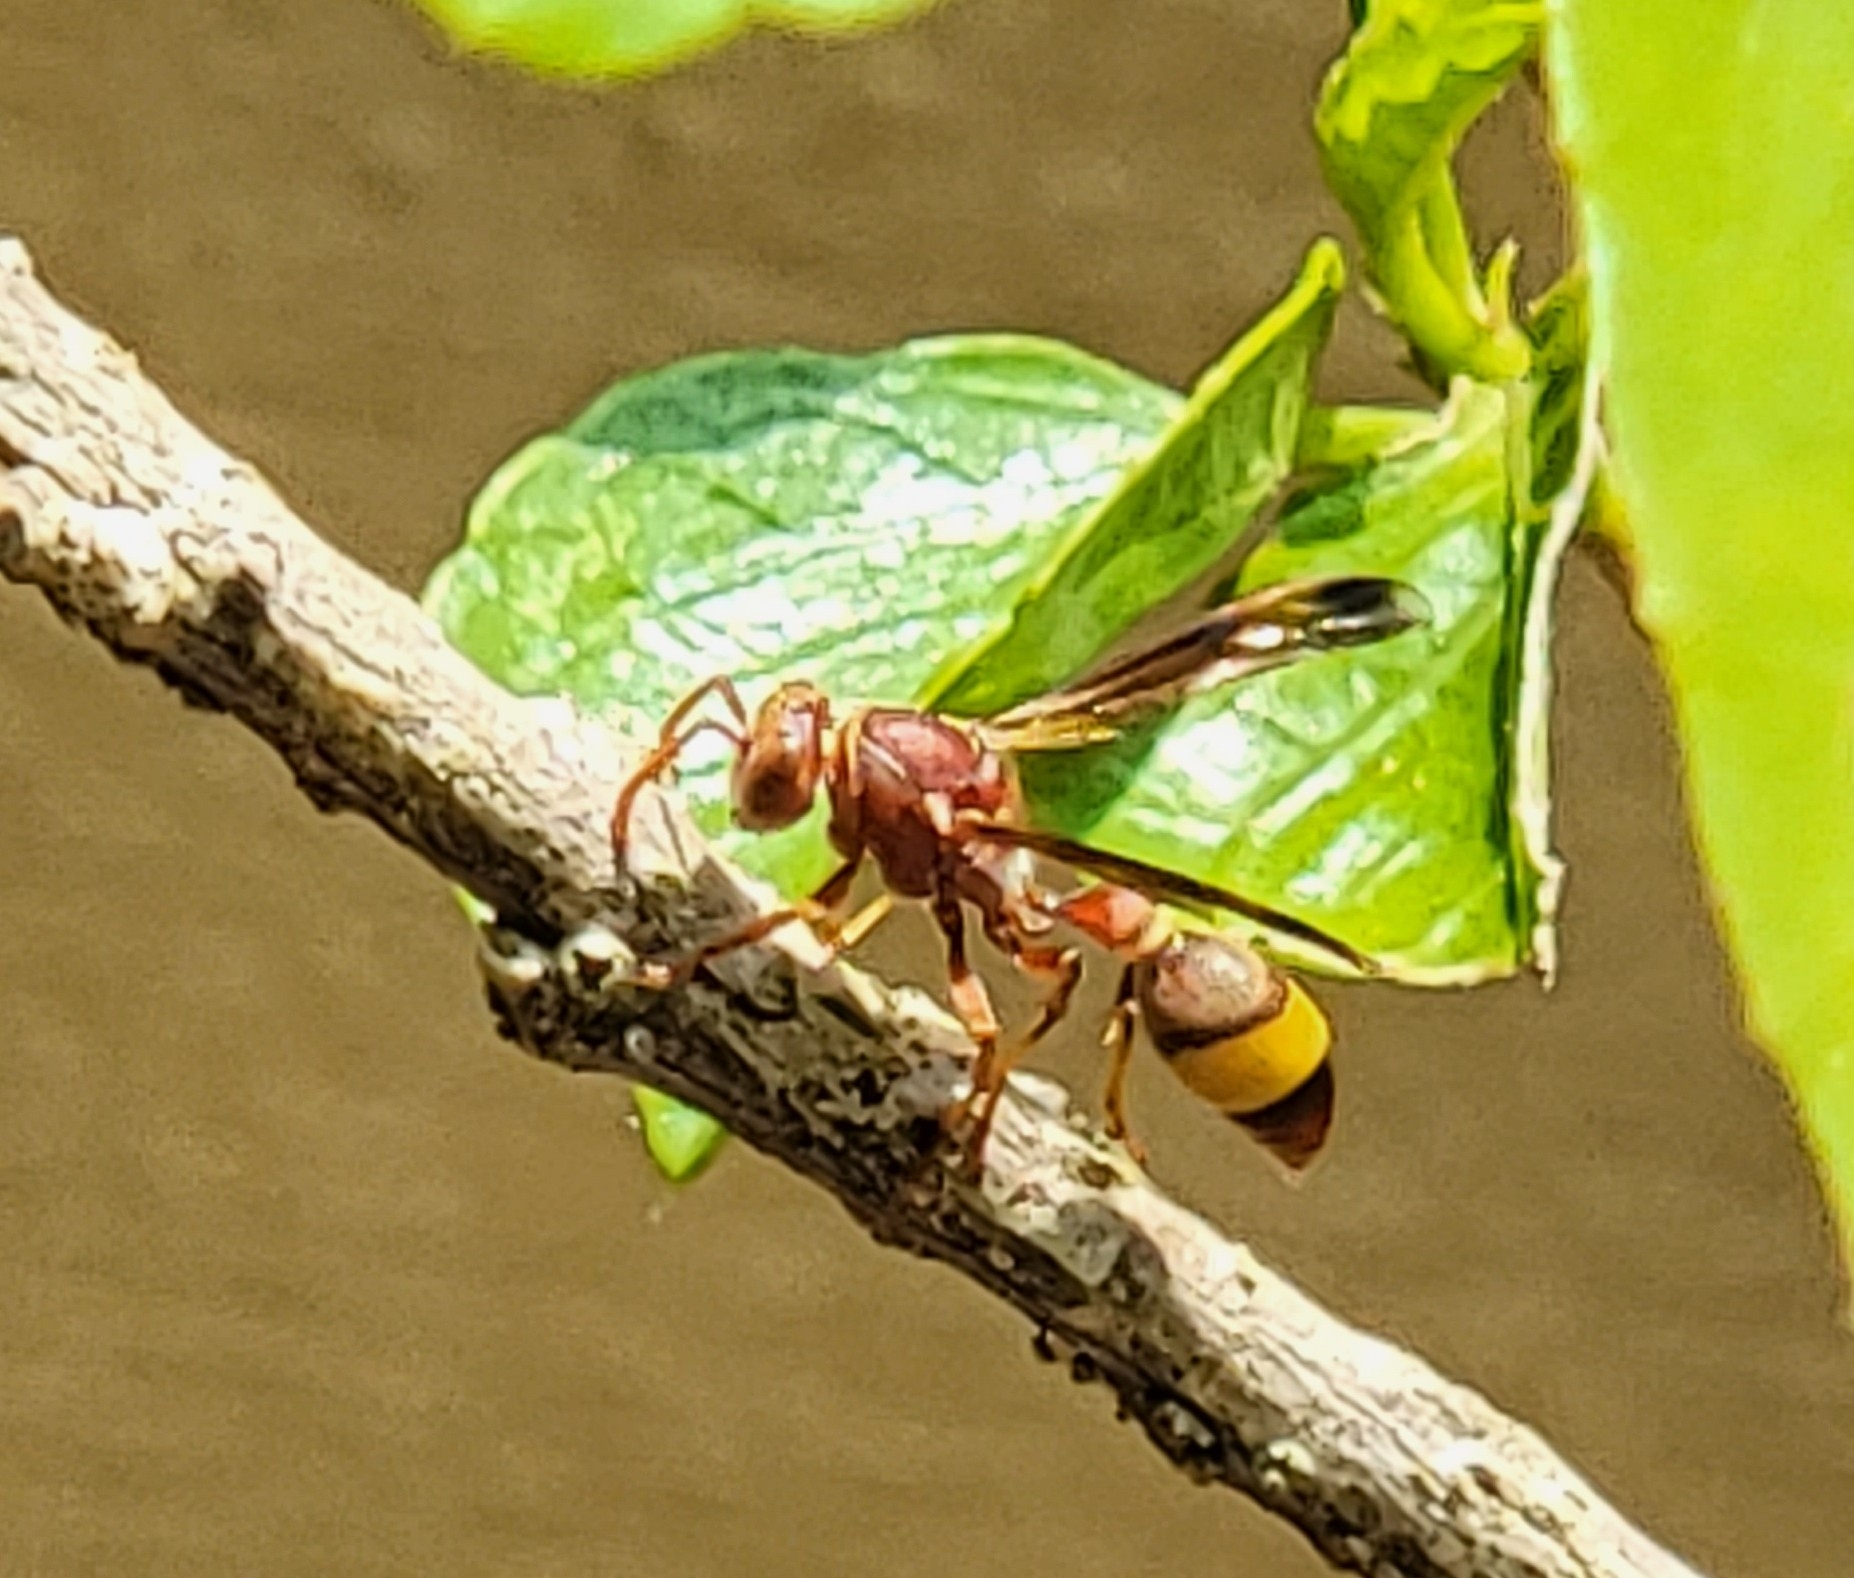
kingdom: Animalia
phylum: Arthropoda
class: Insecta
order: Hymenoptera
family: Vespidae
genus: Ropalidia
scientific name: Ropalidia
